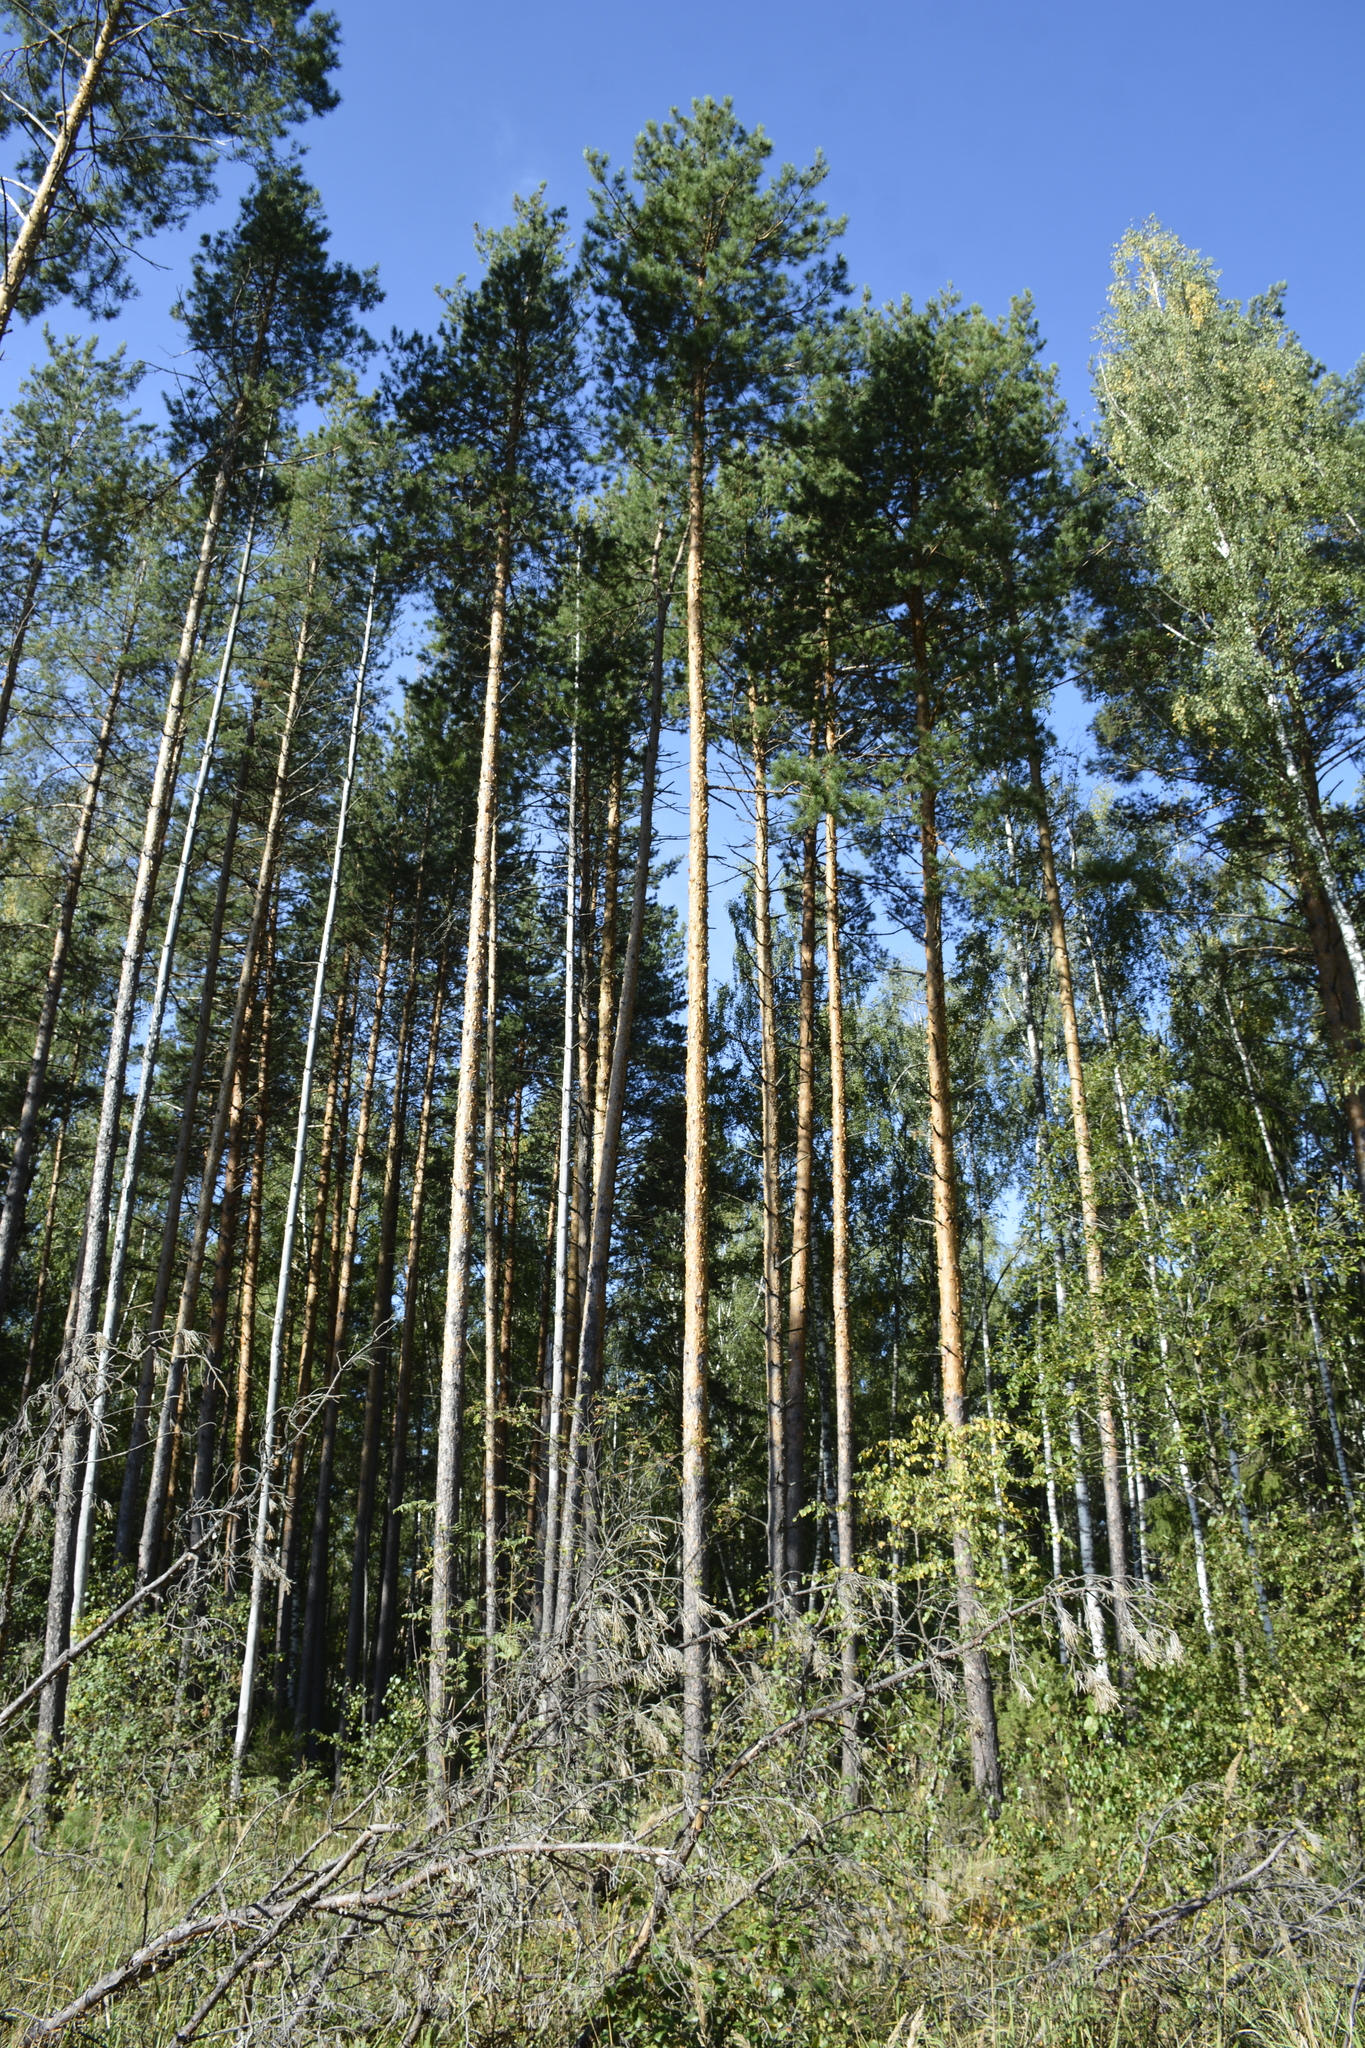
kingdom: Plantae
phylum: Tracheophyta
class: Pinopsida
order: Pinales
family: Pinaceae
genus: Pinus
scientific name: Pinus sylvestris
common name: Scots pine
